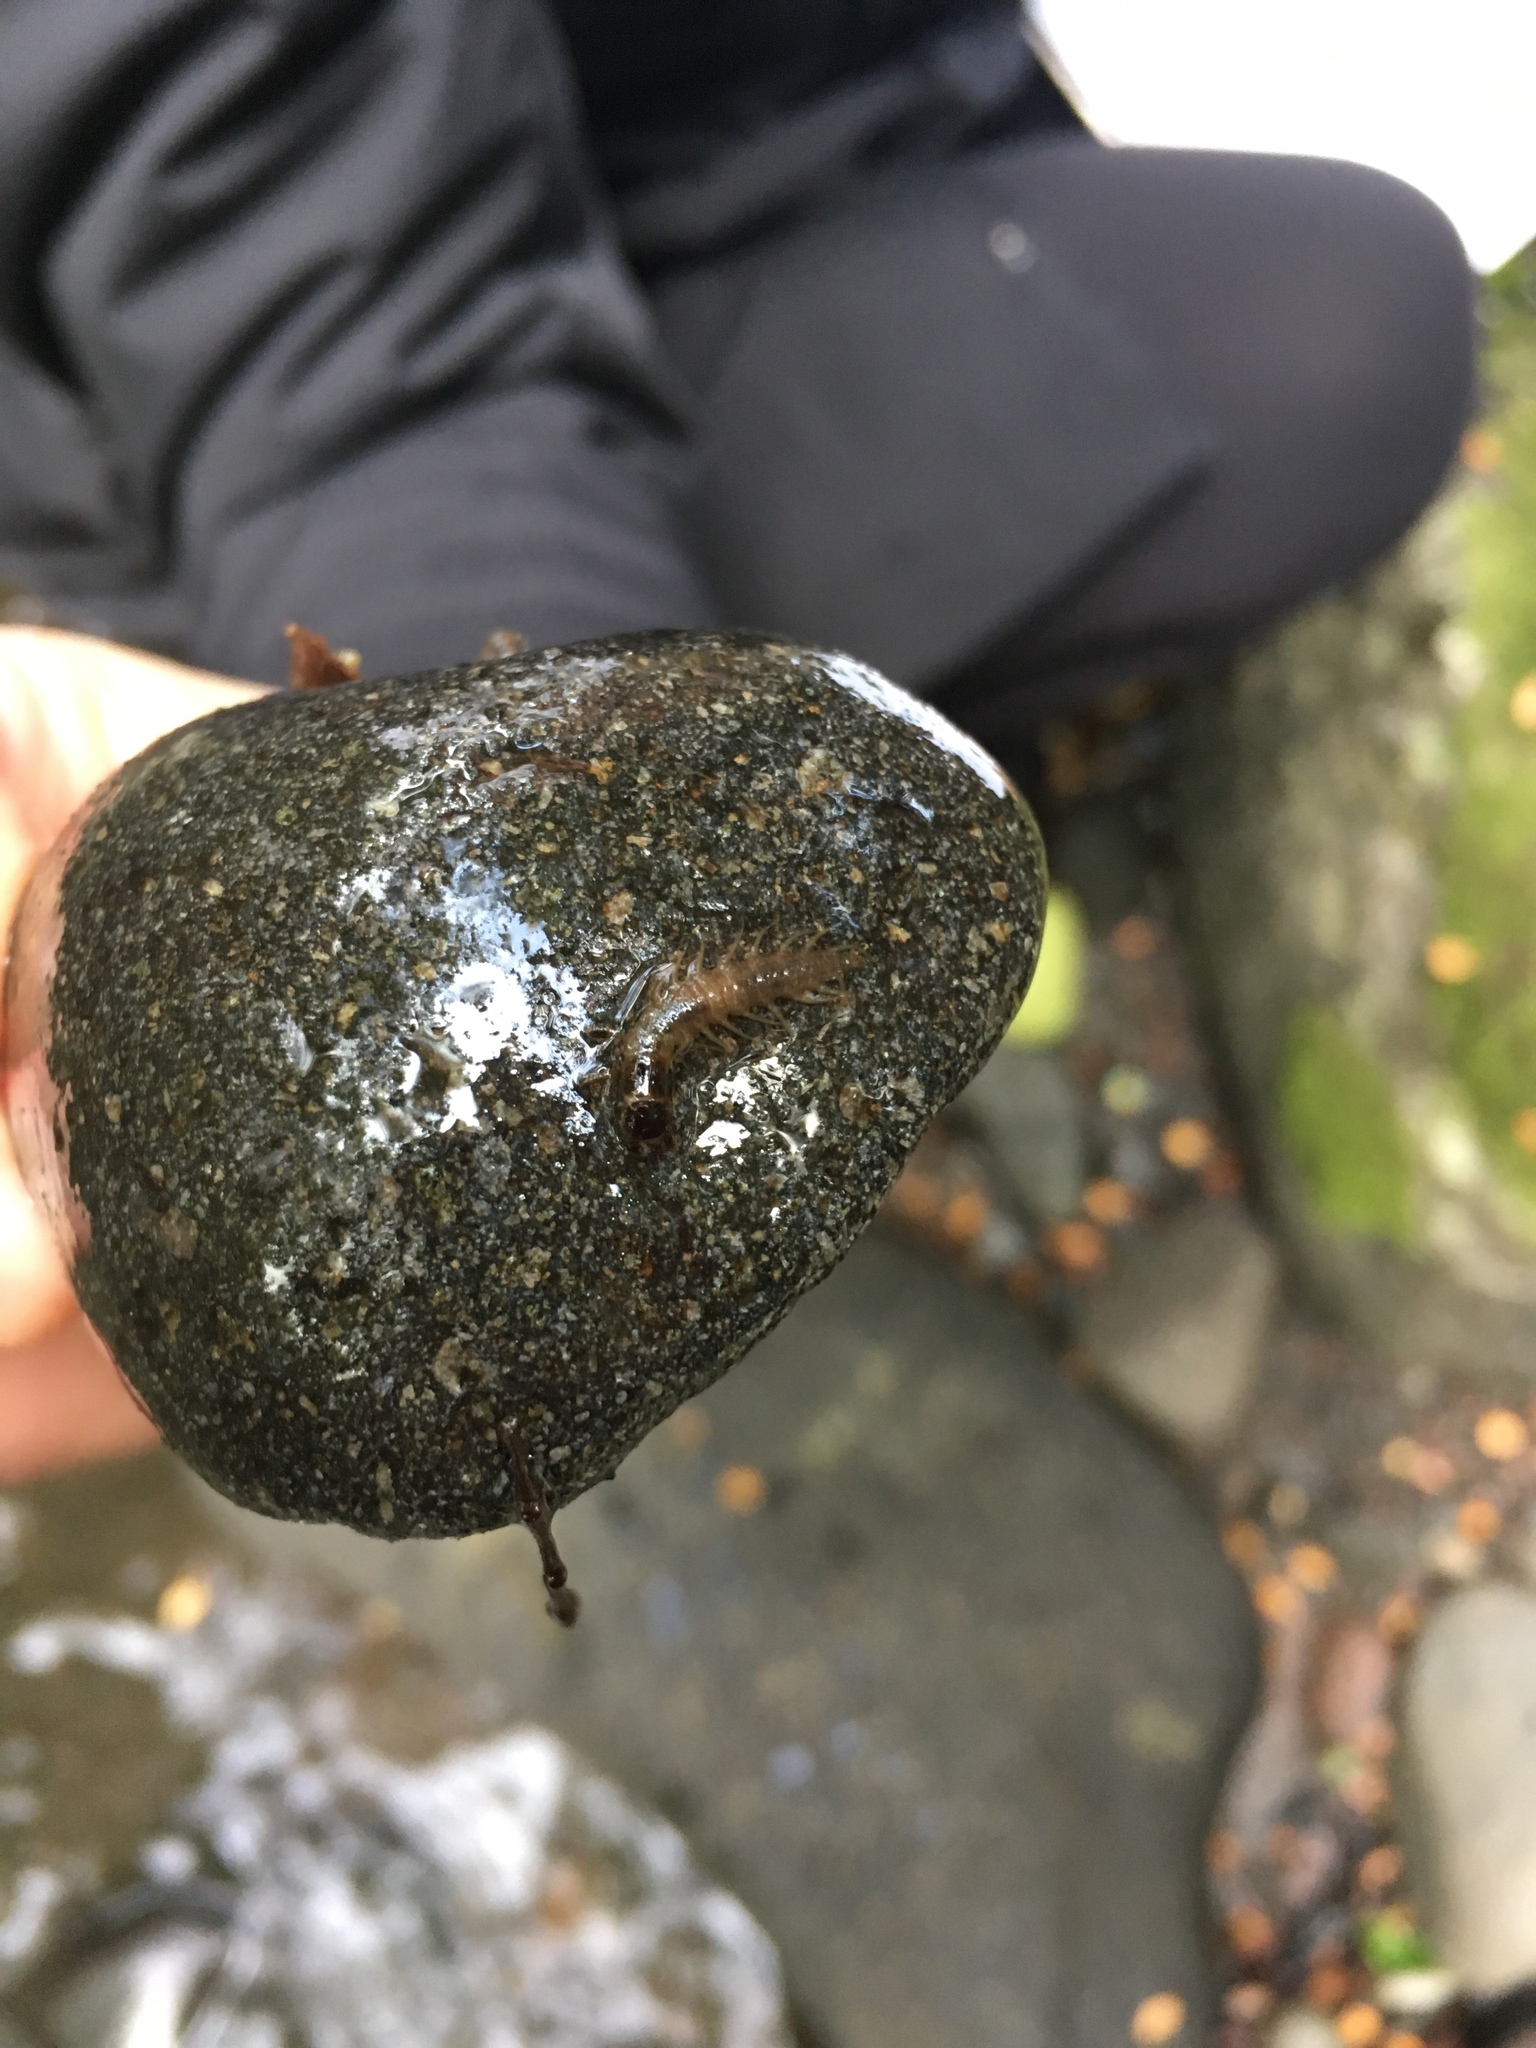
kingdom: Animalia
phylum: Arthropoda
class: Insecta
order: Megaloptera
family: Corydalidae
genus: Archichauliodes
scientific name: Archichauliodes diversus
